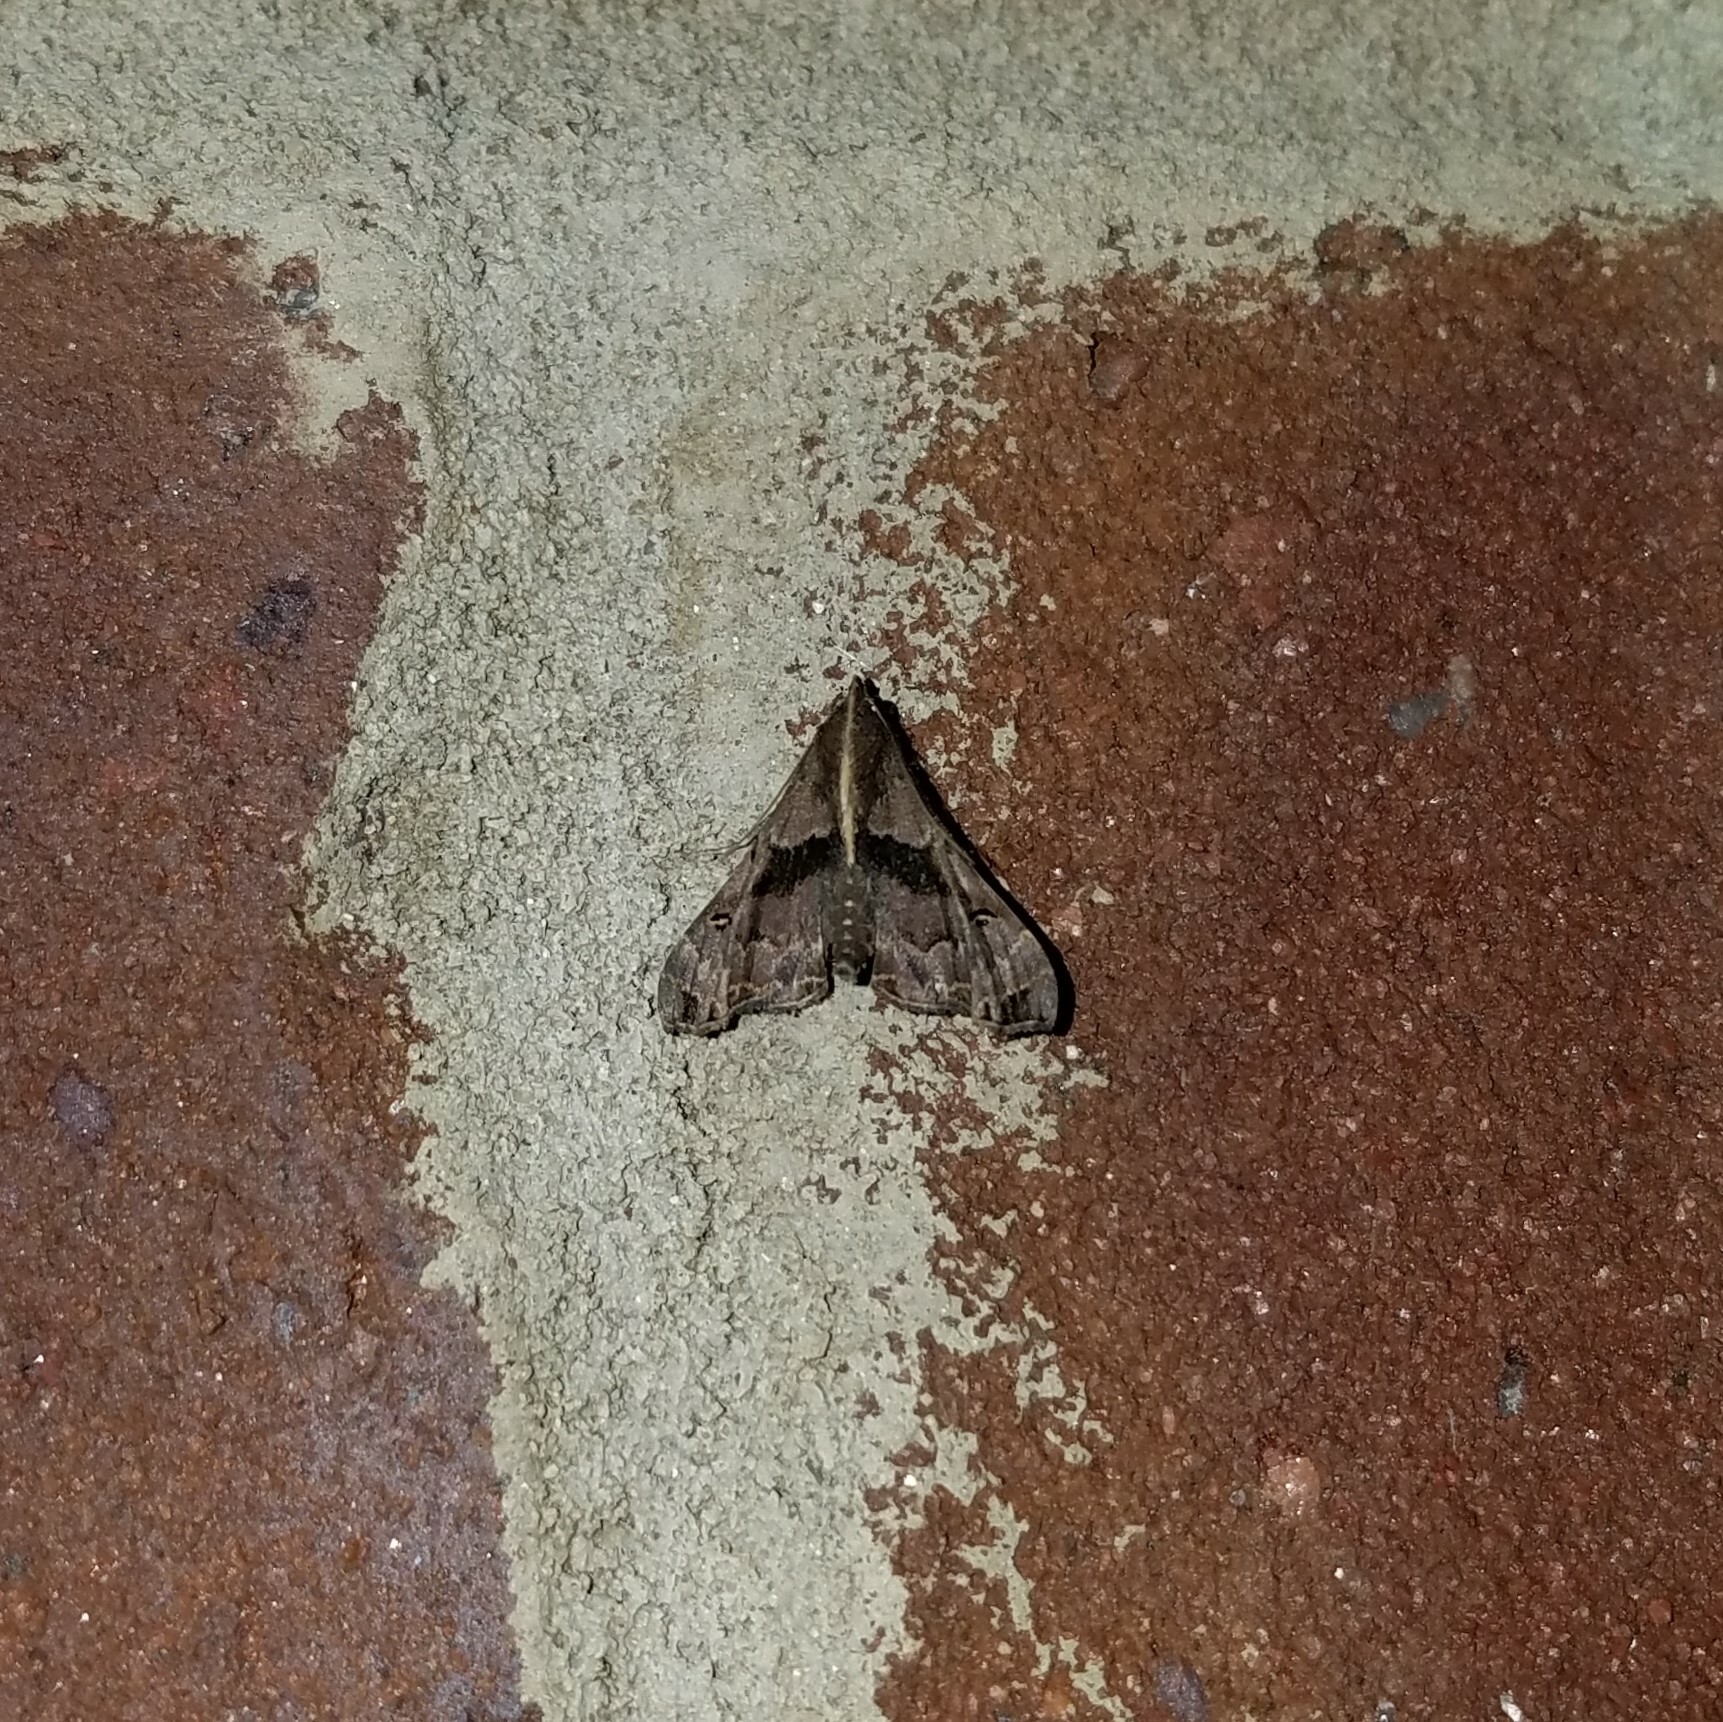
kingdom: Animalia
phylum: Arthropoda
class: Insecta
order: Lepidoptera
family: Erebidae
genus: Palthis
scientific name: Palthis asopialis
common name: Faint-spotted palthis moth
